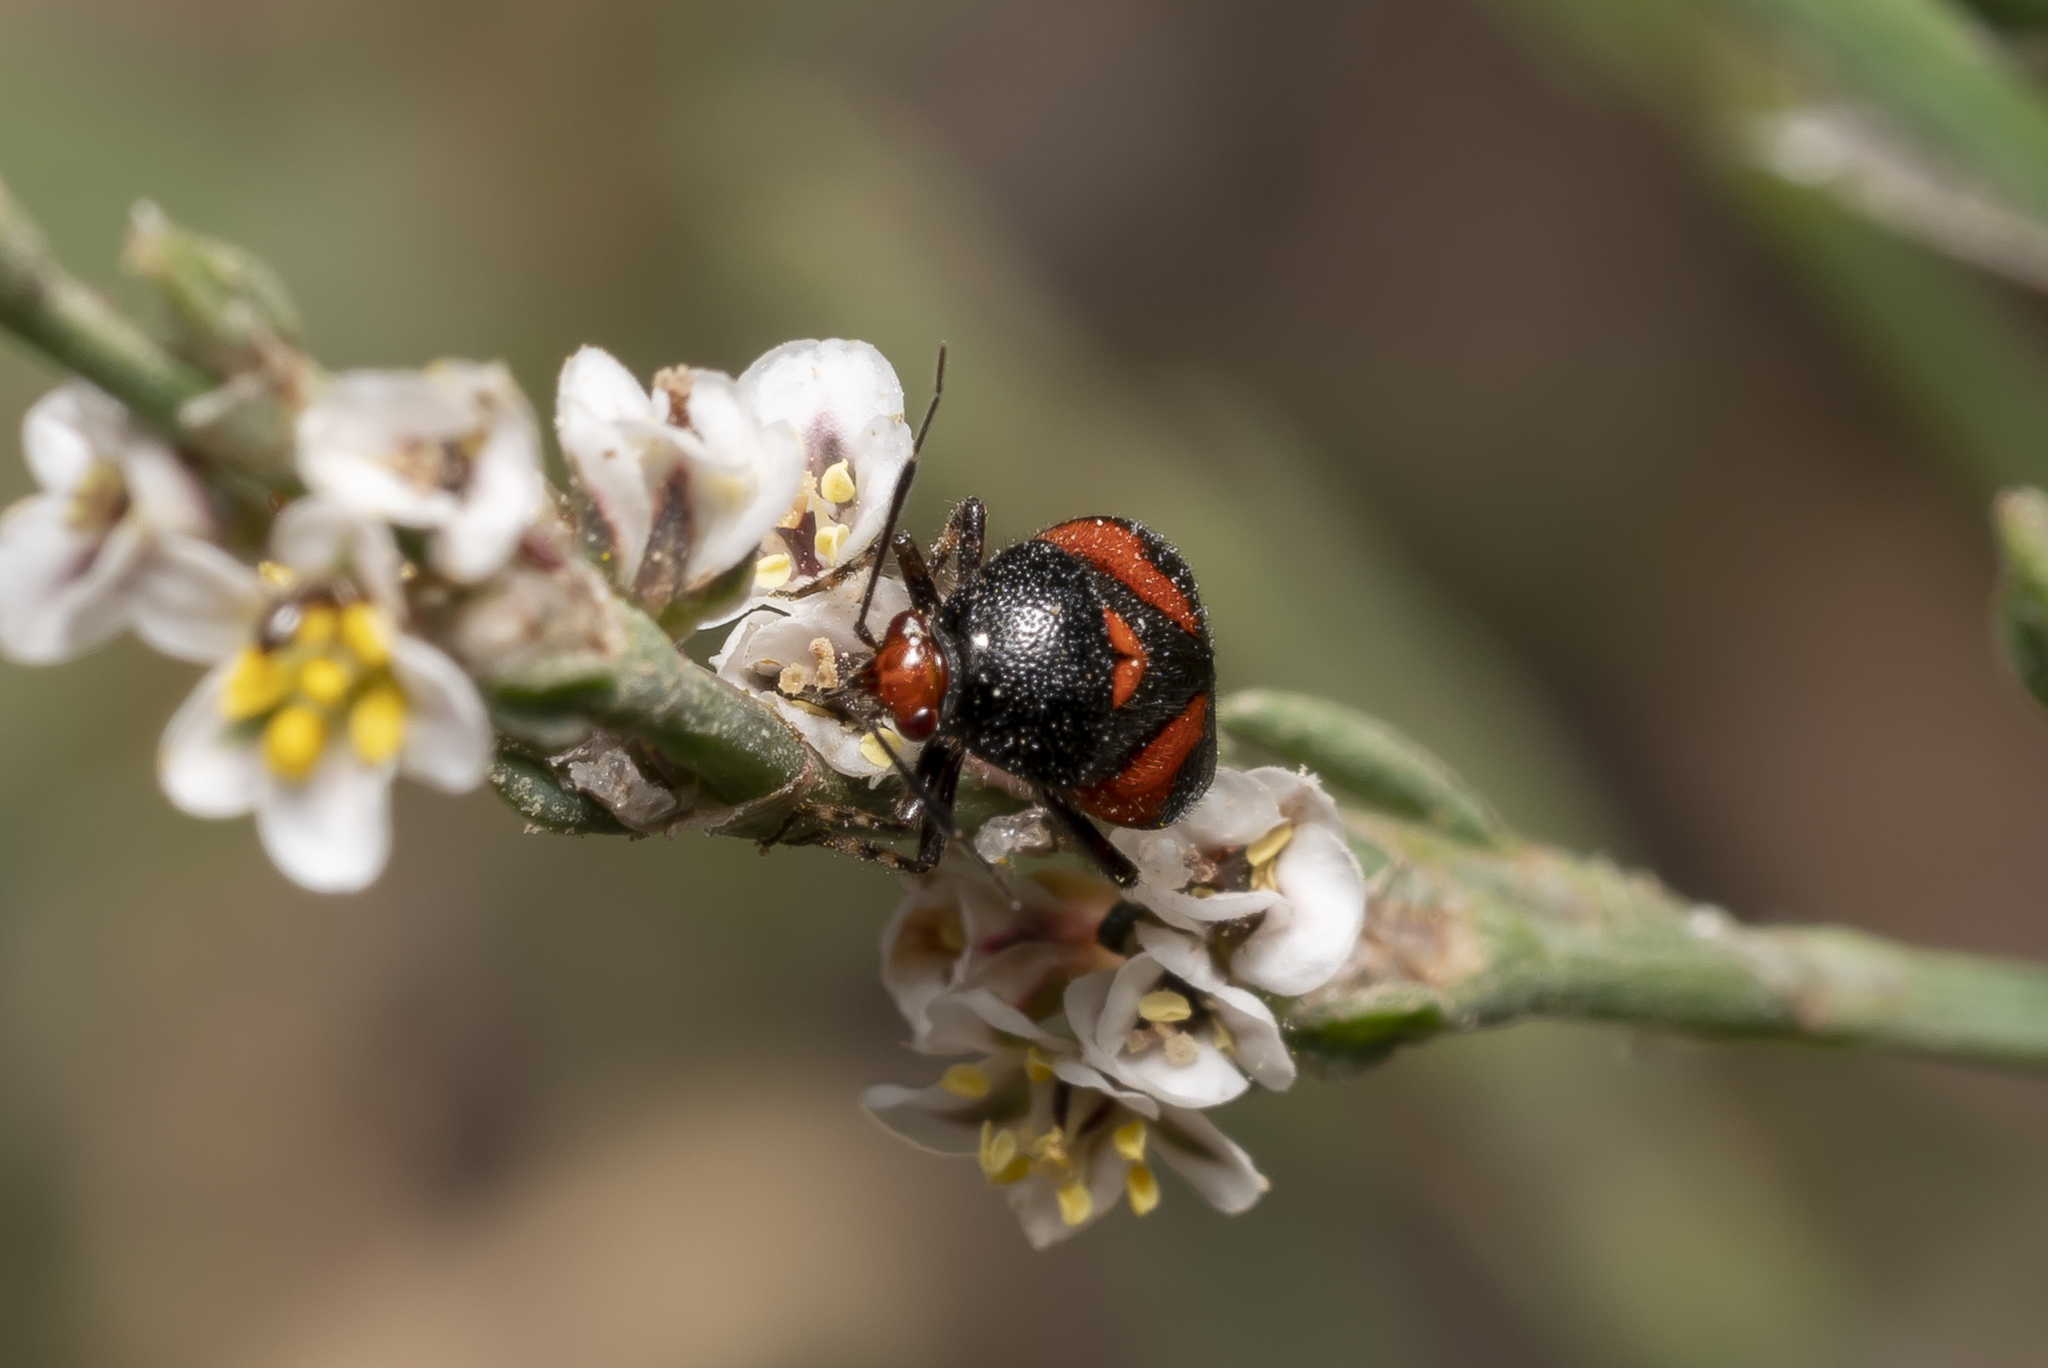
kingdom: Animalia
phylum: Arthropoda
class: Insecta
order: Hemiptera
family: Miridae
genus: Deraeocoris
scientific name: Deraeocoris schach
